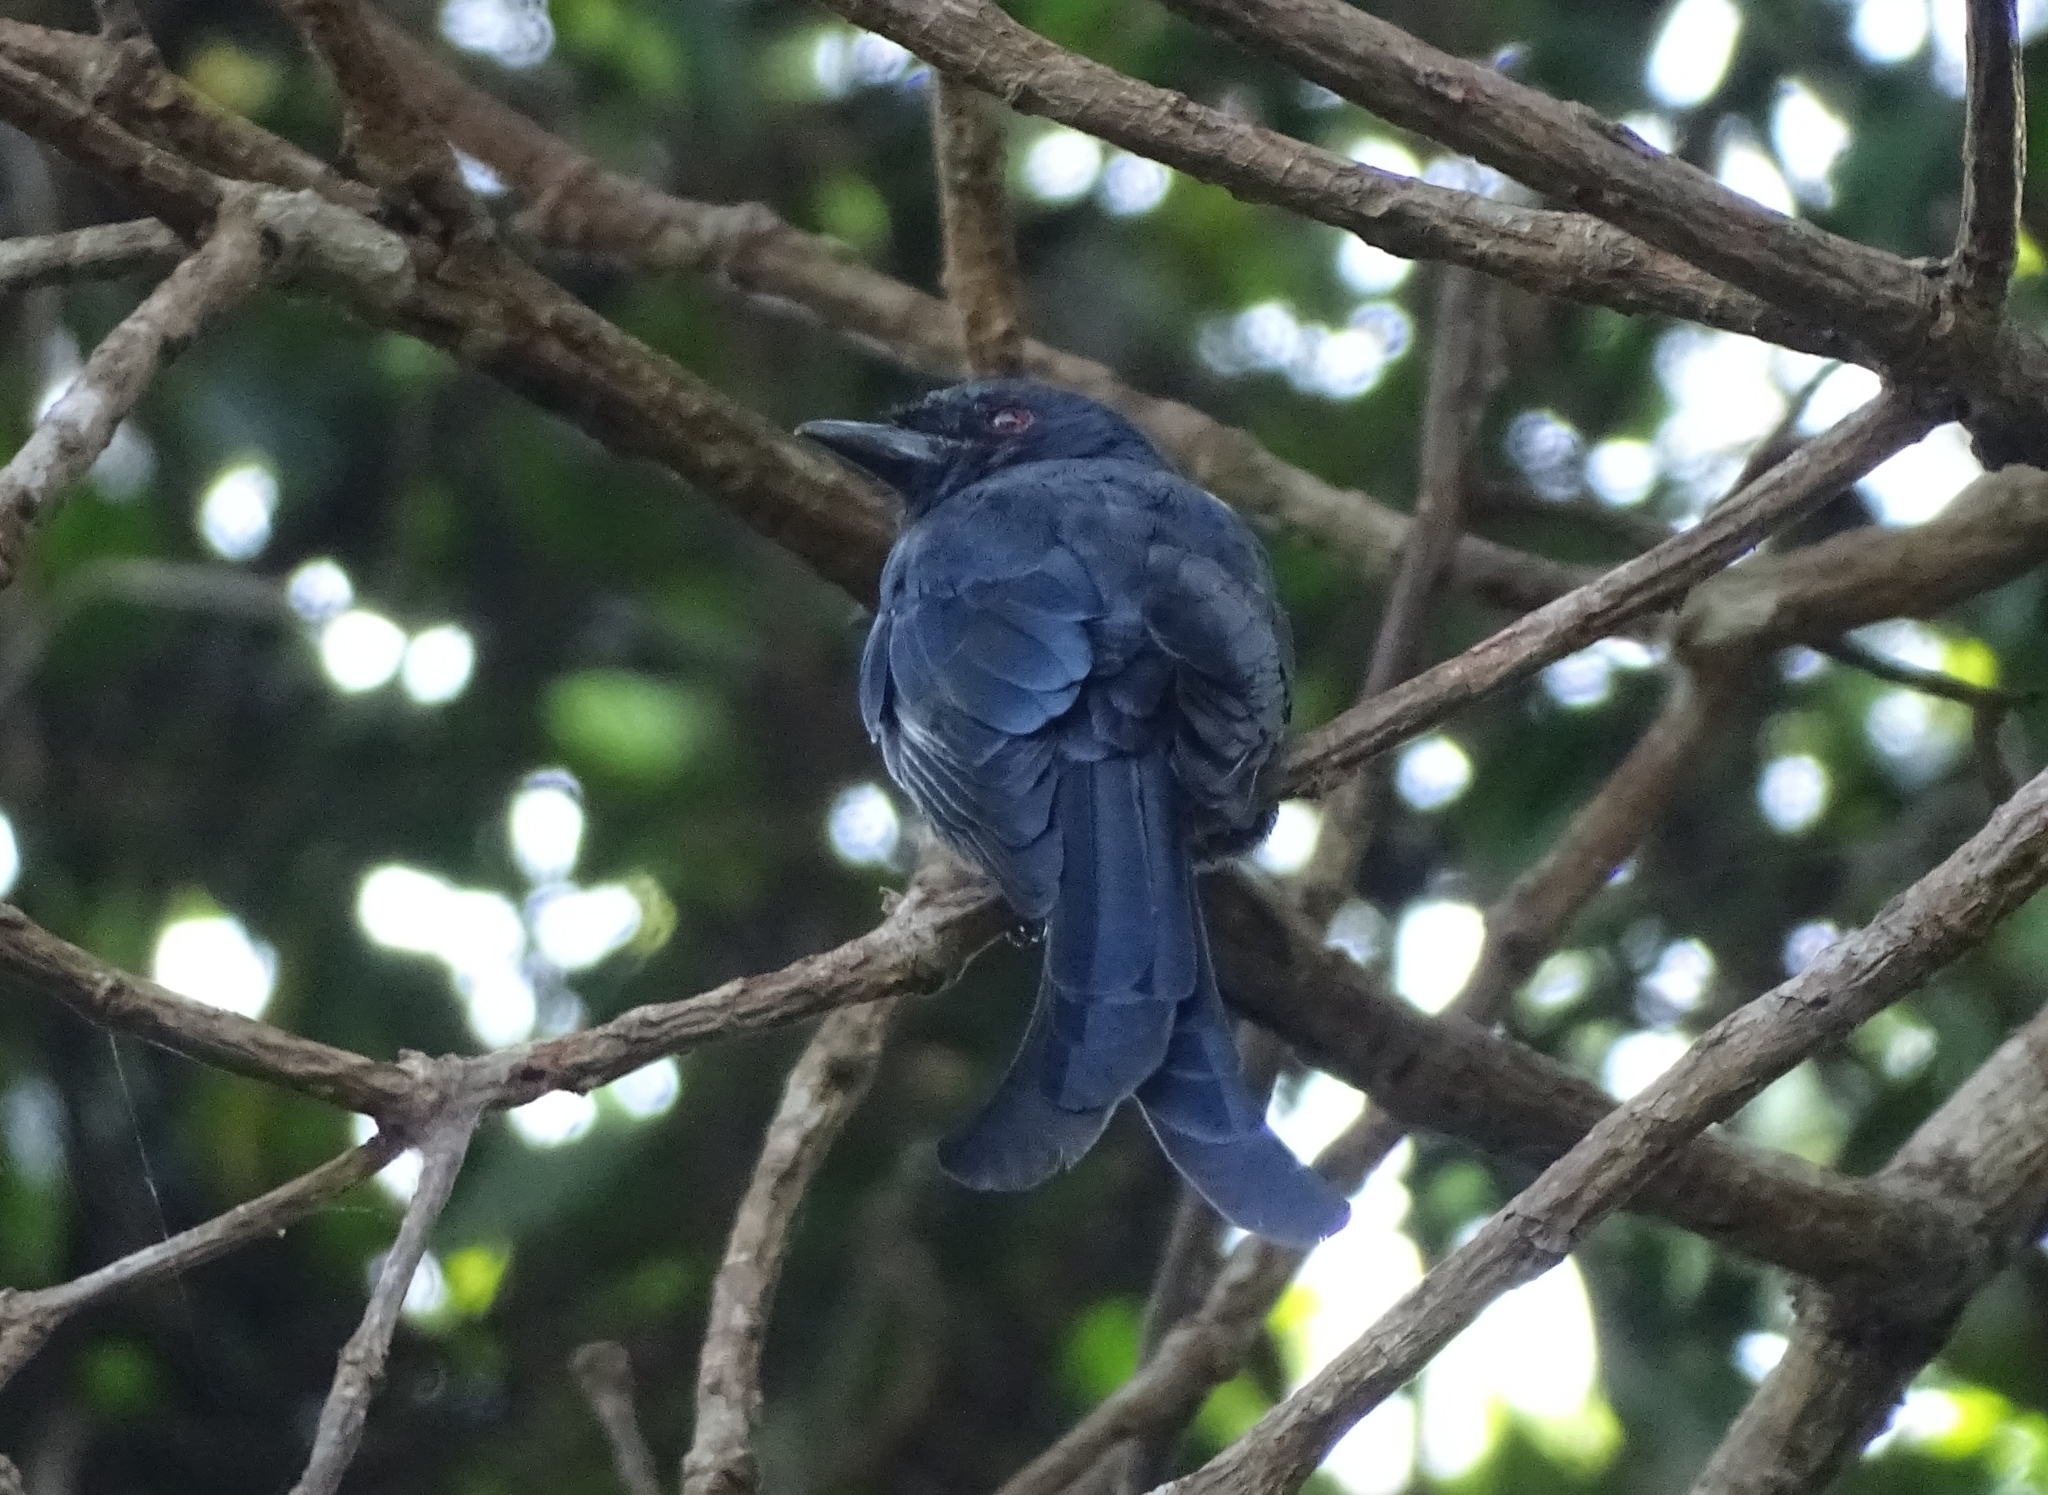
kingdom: Animalia
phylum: Chordata
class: Aves
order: Passeriformes
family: Dicruridae
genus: Dicrurus
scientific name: Dicrurus leucophaeus
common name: Ashy drongo
